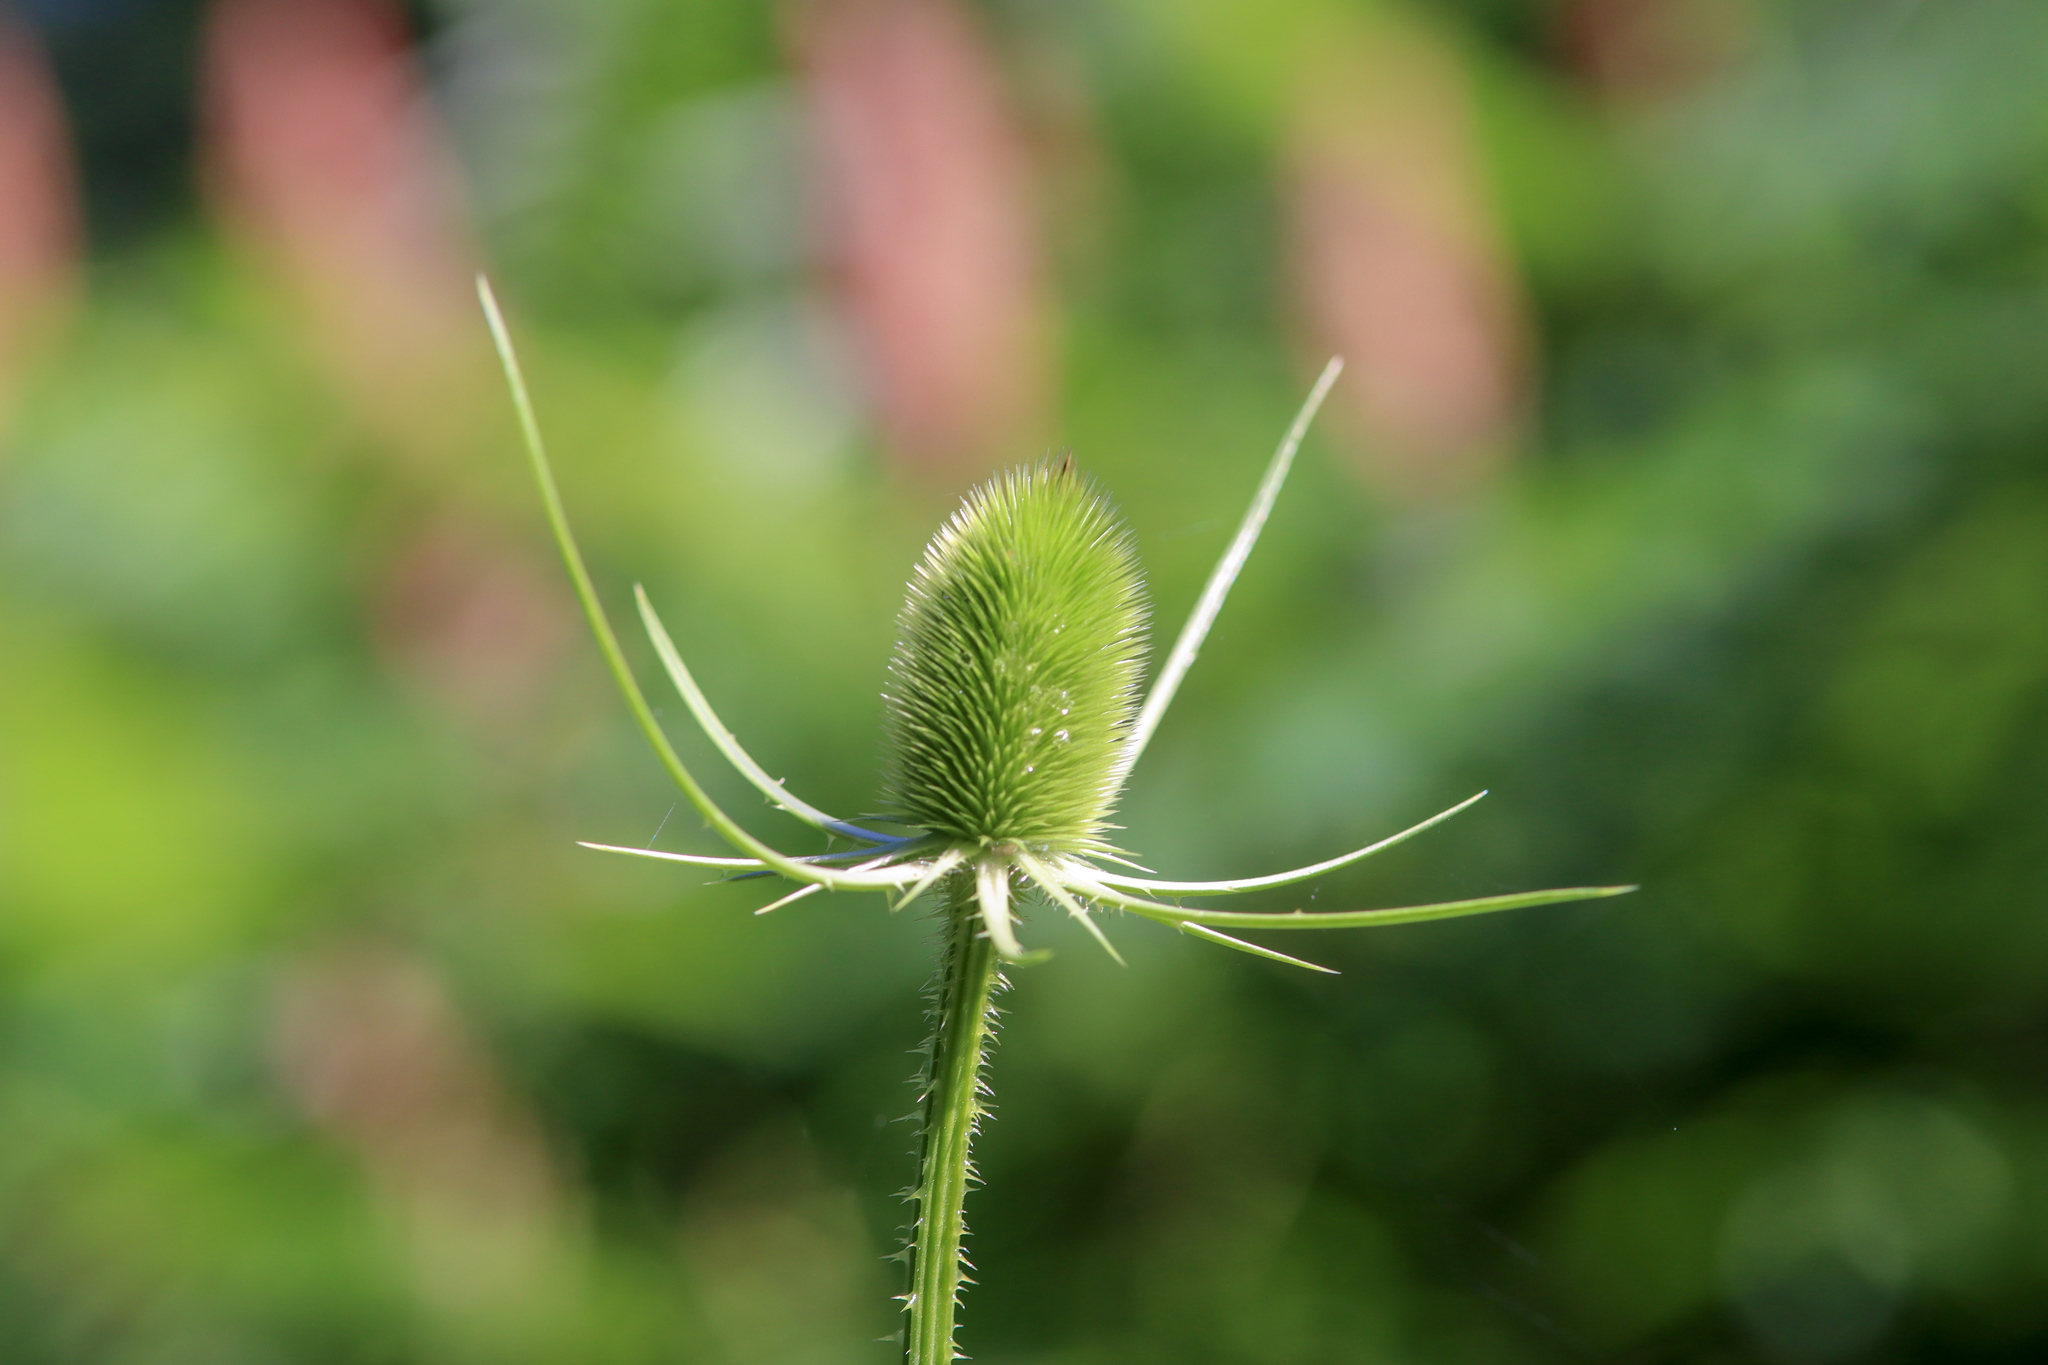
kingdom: Plantae
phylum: Tracheophyta
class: Magnoliopsida
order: Dipsacales
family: Caprifoliaceae
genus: Dipsacus
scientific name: Dipsacus fullonum
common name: Teasel
